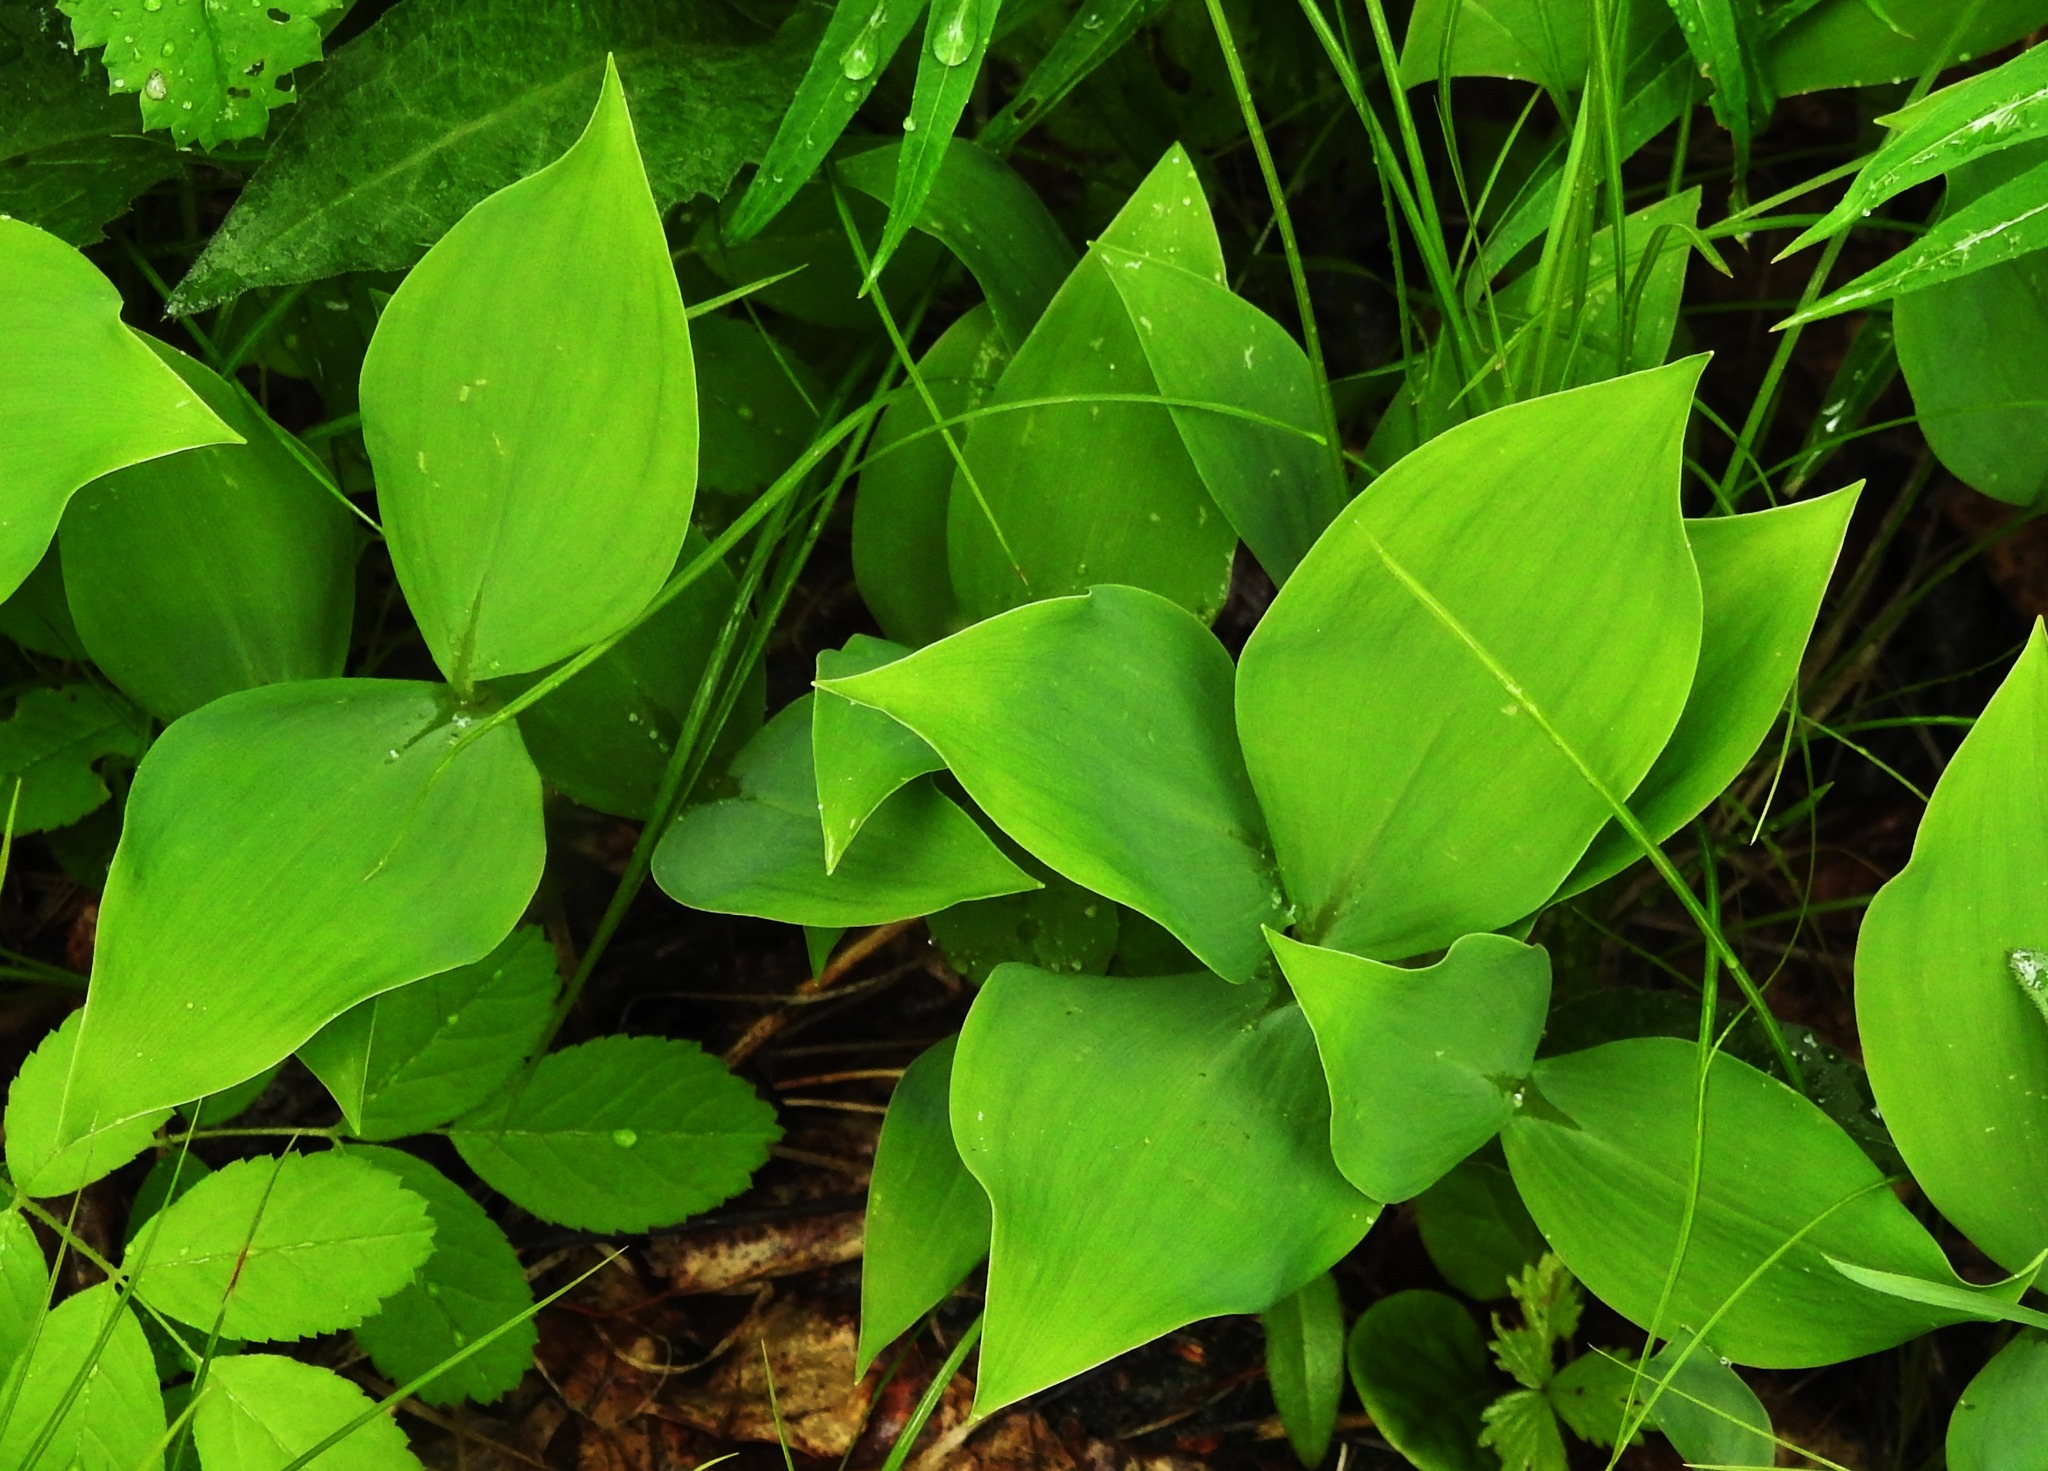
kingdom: Plantae
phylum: Tracheophyta
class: Liliopsida
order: Asparagales
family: Asparagaceae
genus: Convallaria
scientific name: Convallaria keiskei
